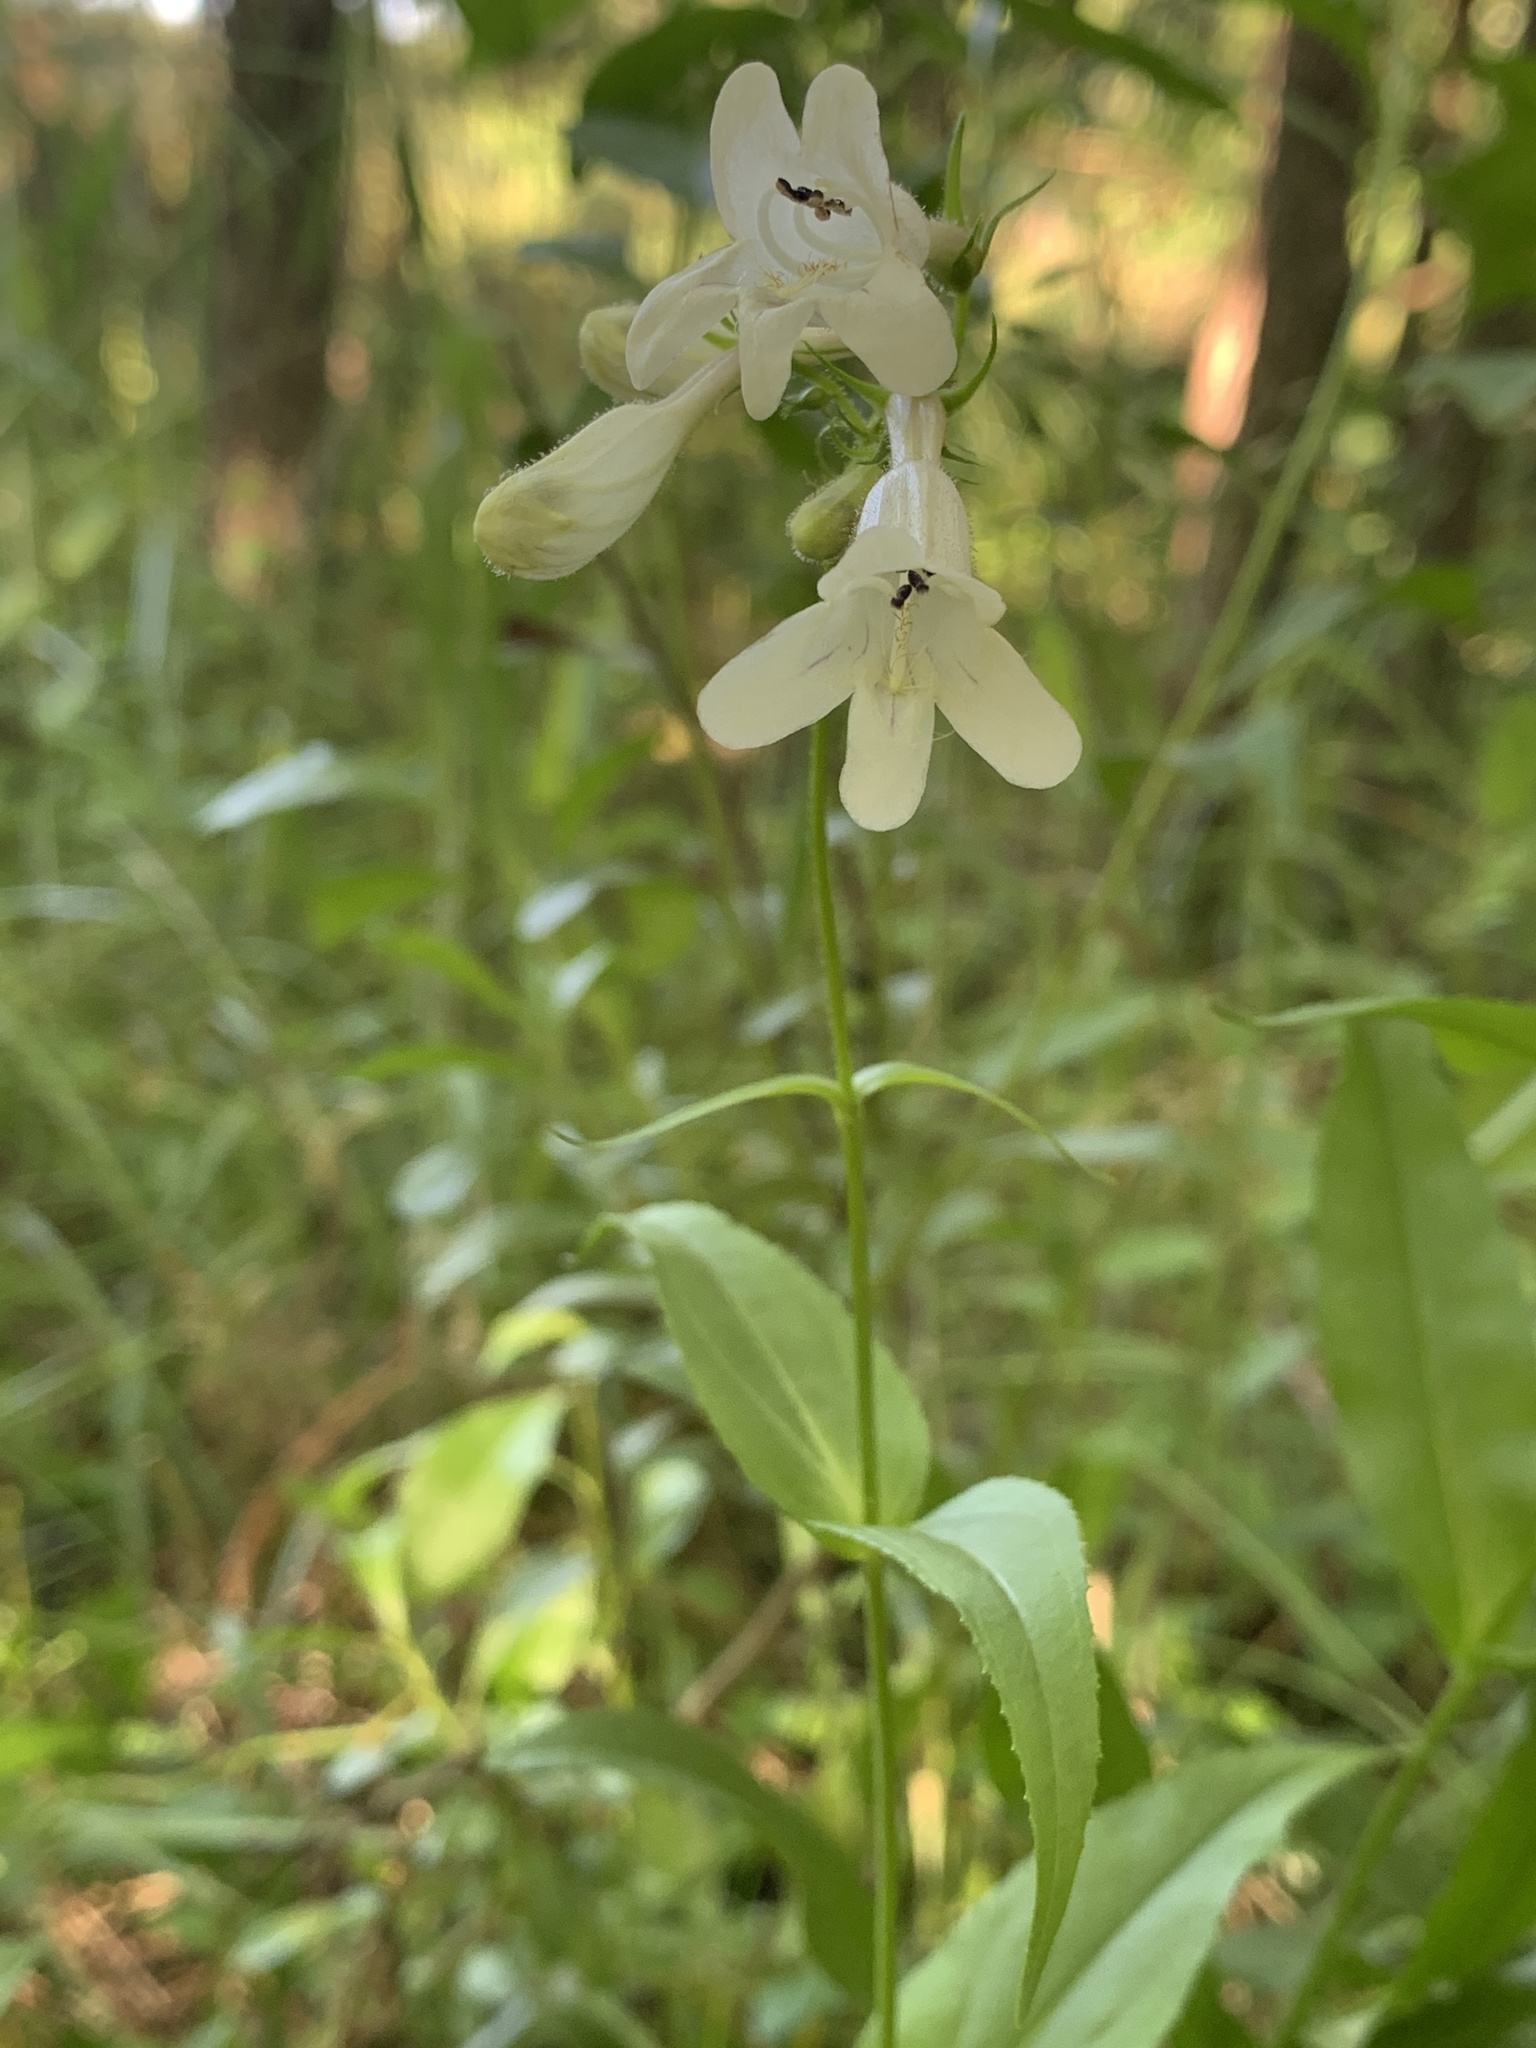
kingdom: Plantae
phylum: Tracheophyta
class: Magnoliopsida
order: Lamiales
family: Plantaginaceae
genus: Penstemon
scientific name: Penstemon digitalis
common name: Foxglove beardtongue
